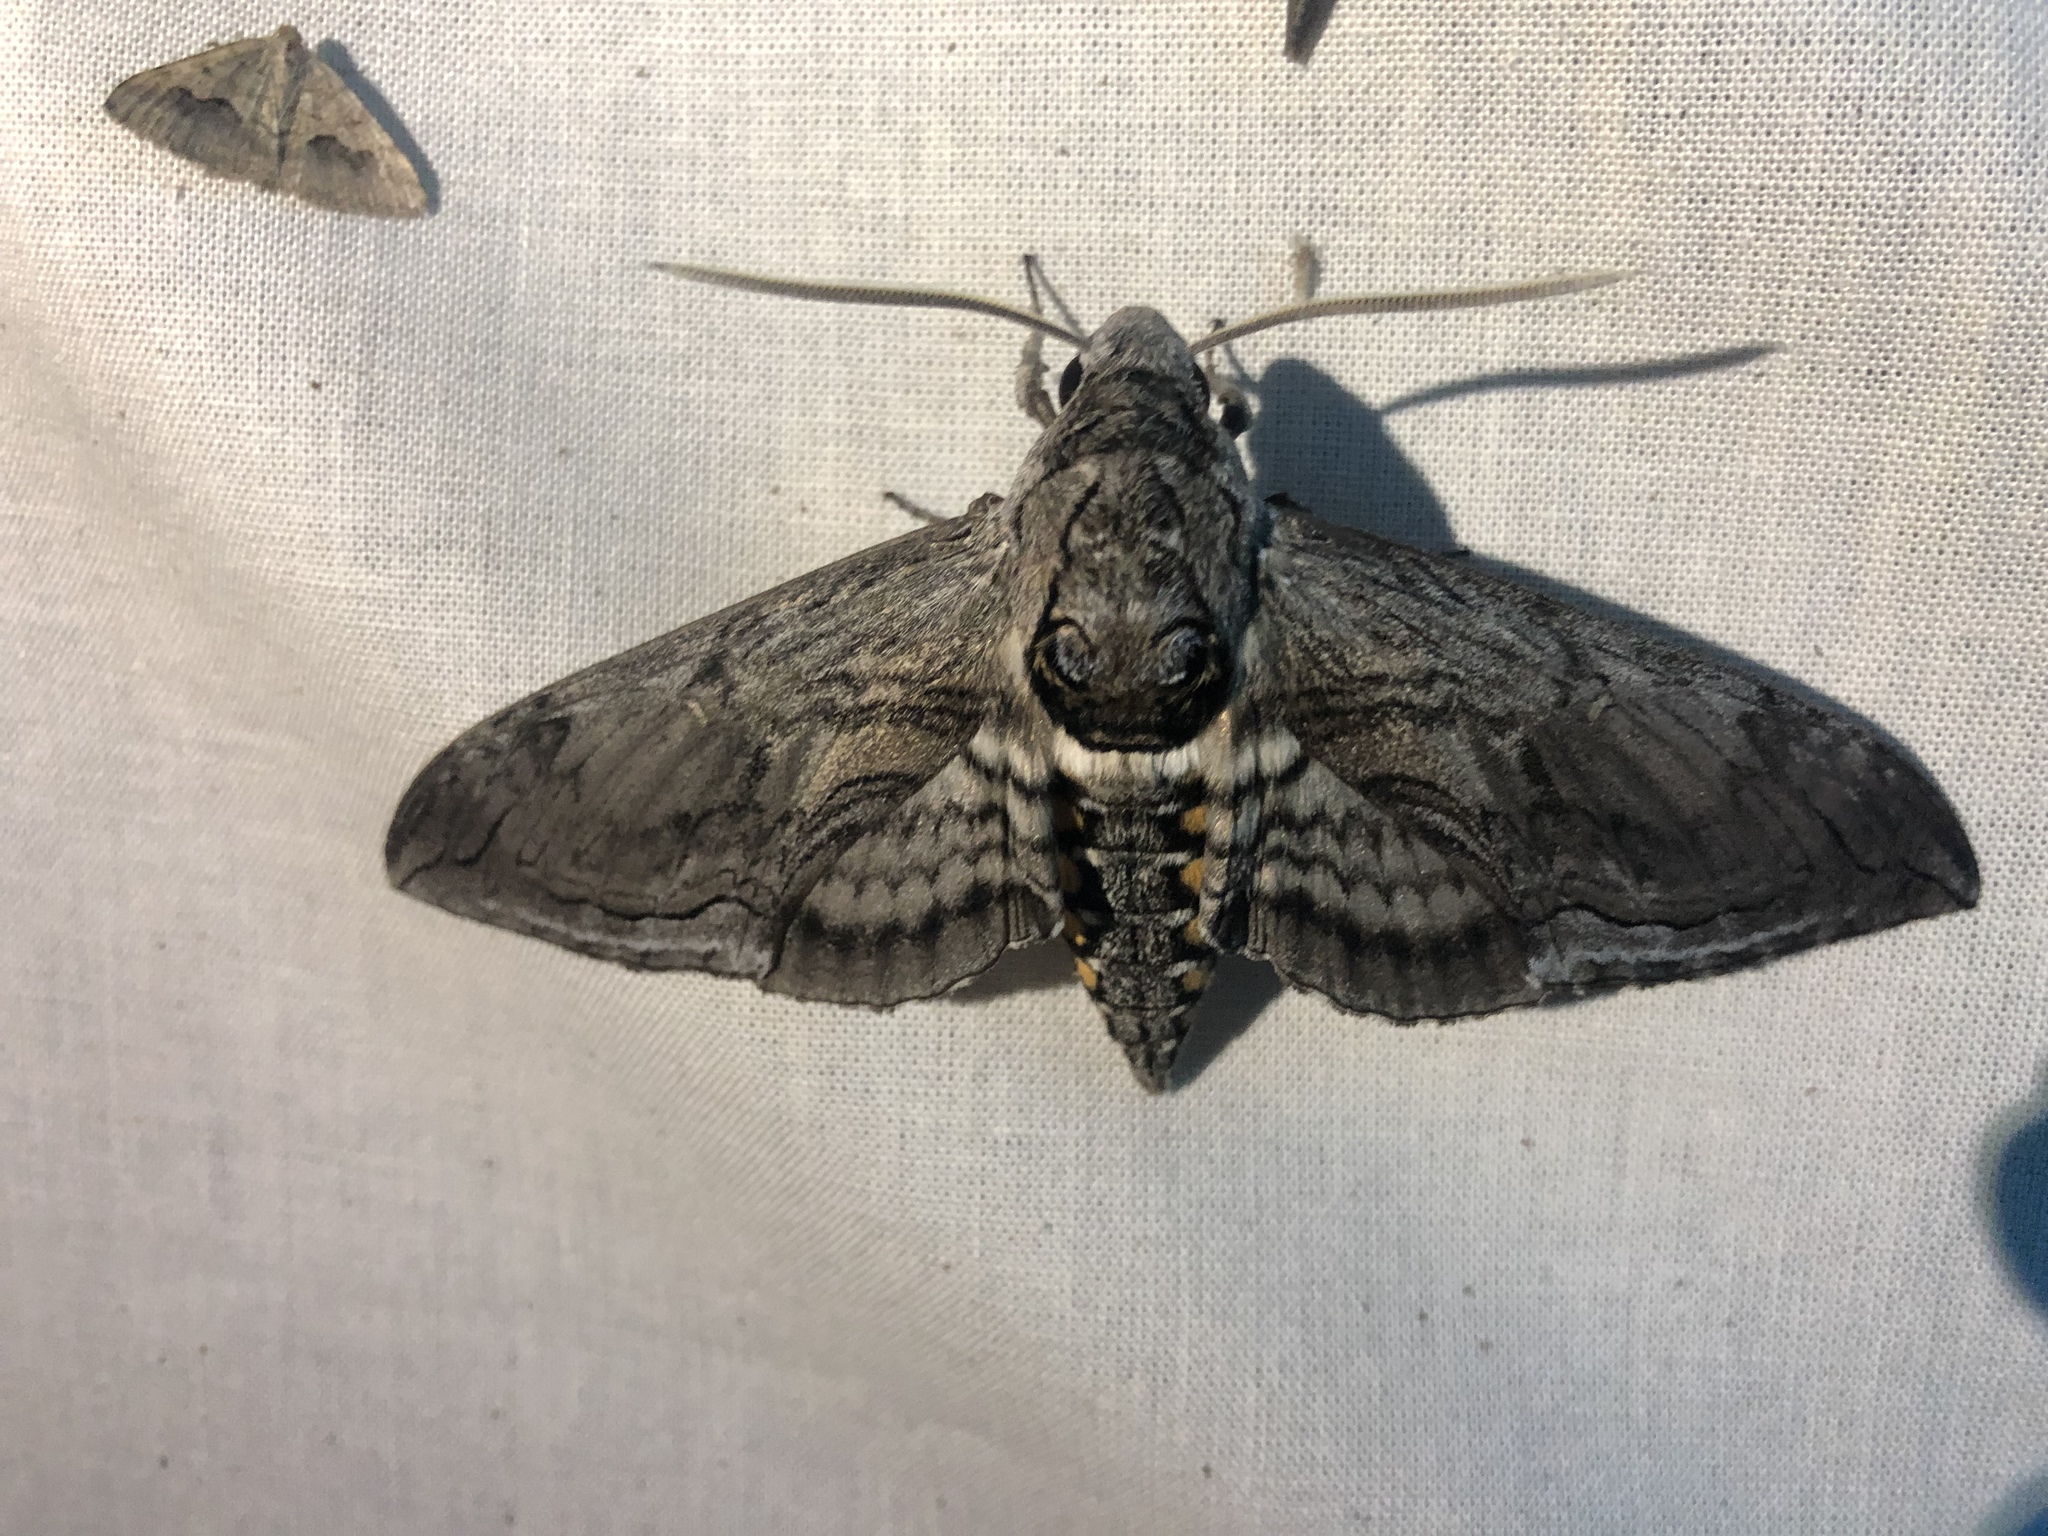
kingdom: Animalia
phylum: Arthropoda
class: Insecta
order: Lepidoptera
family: Sphingidae
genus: Manduca
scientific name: Manduca quinquemaculatus
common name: Five-spotted hawk-moth
